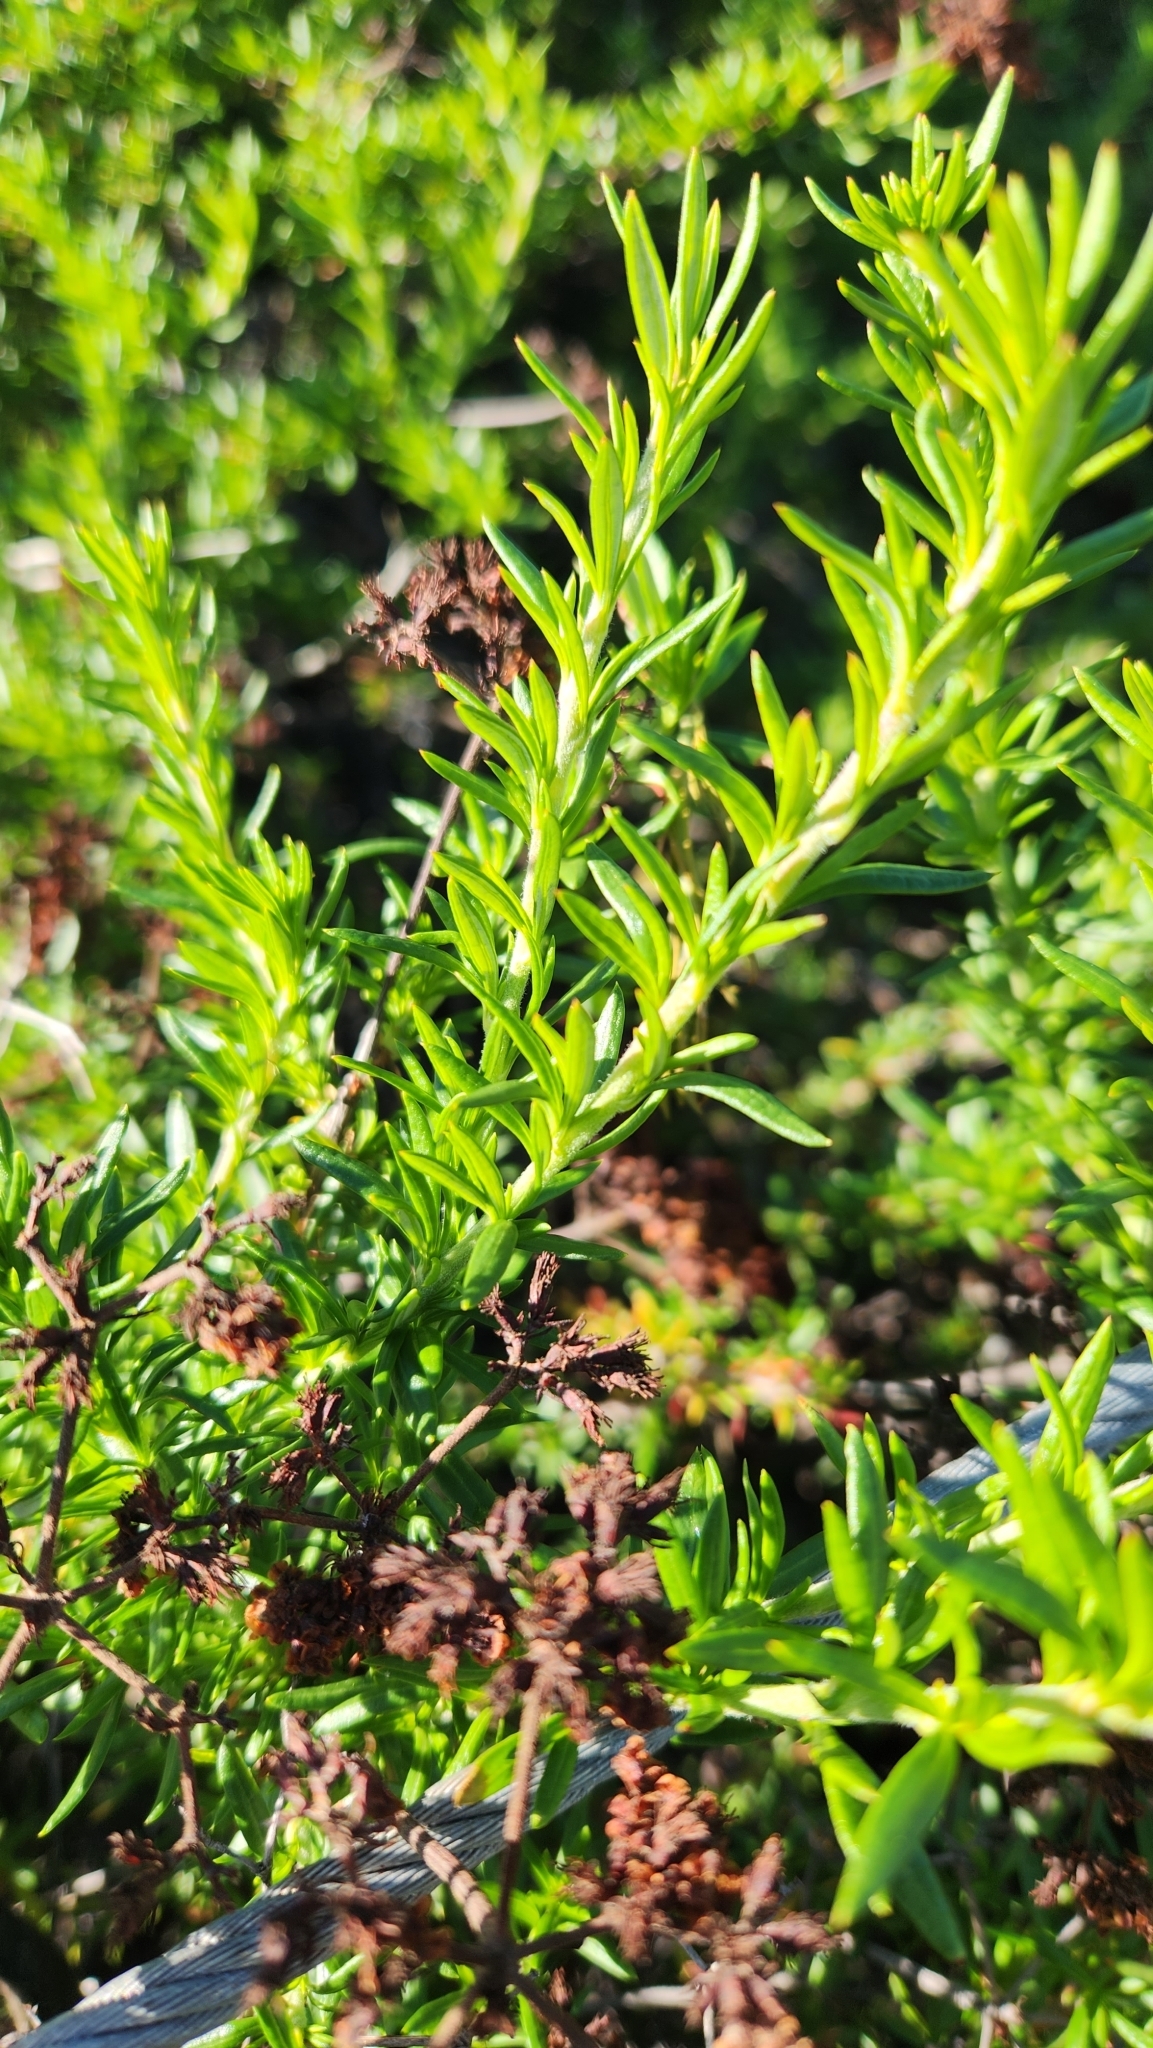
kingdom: Plantae
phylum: Tracheophyta
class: Magnoliopsida
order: Caryophyllales
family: Polygonaceae
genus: Eriogonum
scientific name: Eriogonum fasciculatum
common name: California wild buckwheat
